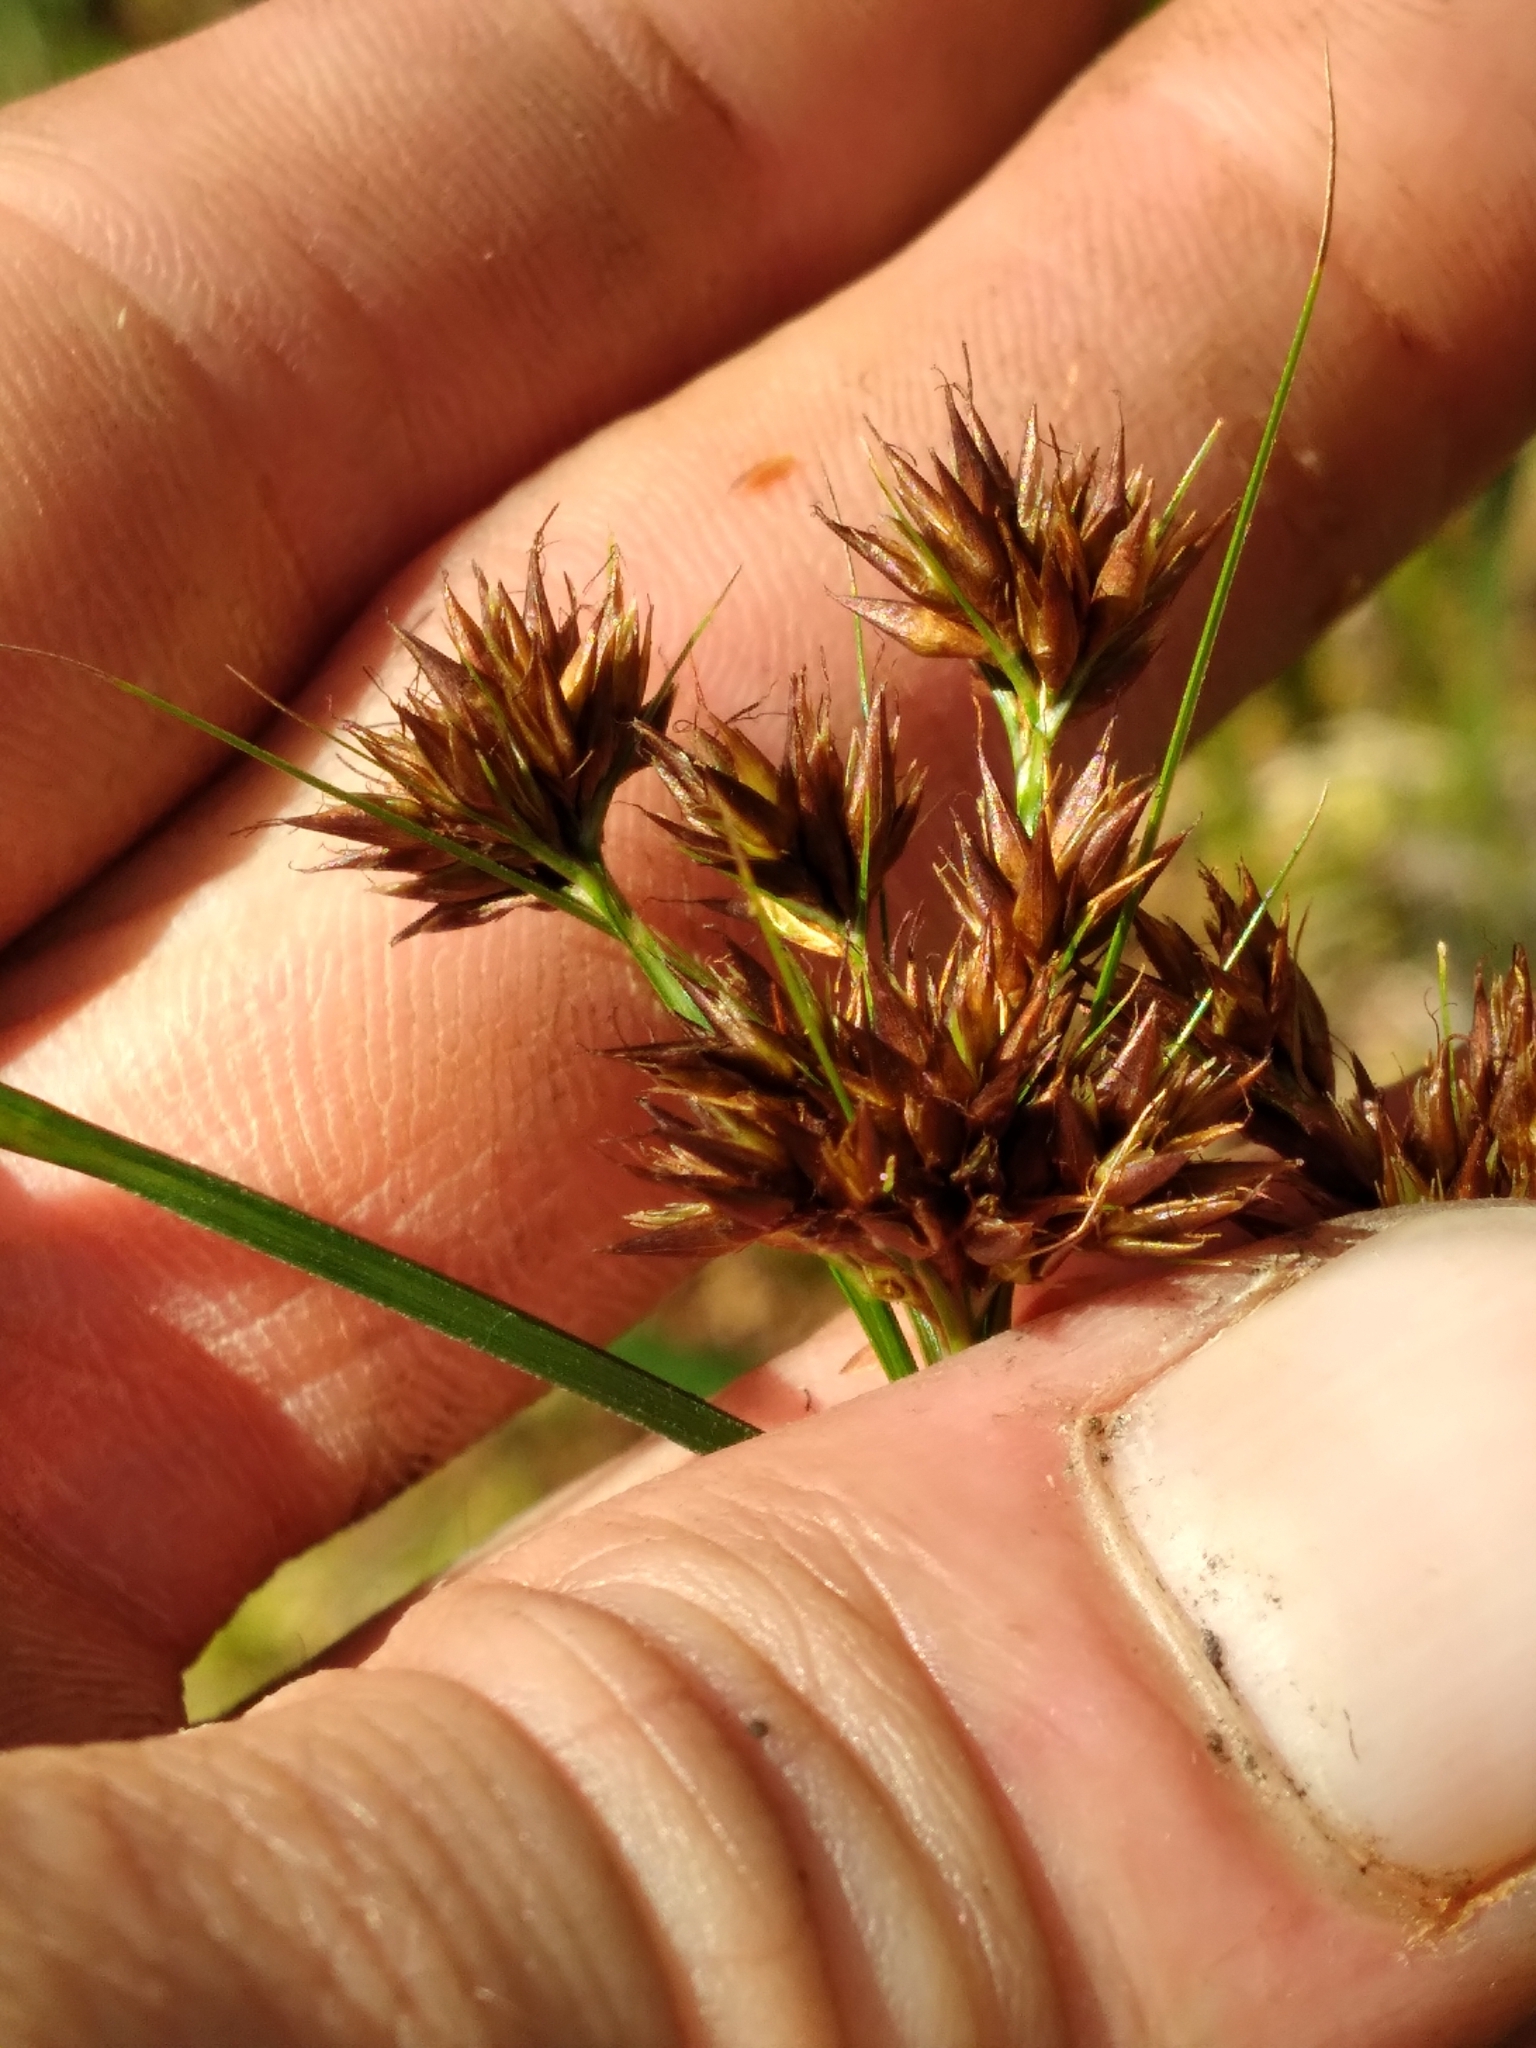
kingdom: Plantae
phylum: Tracheophyta
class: Liliopsida
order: Poales
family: Cyperaceae
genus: Rhynchospora
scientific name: Rhynchospora glomerata
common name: Cluster beak sedge
